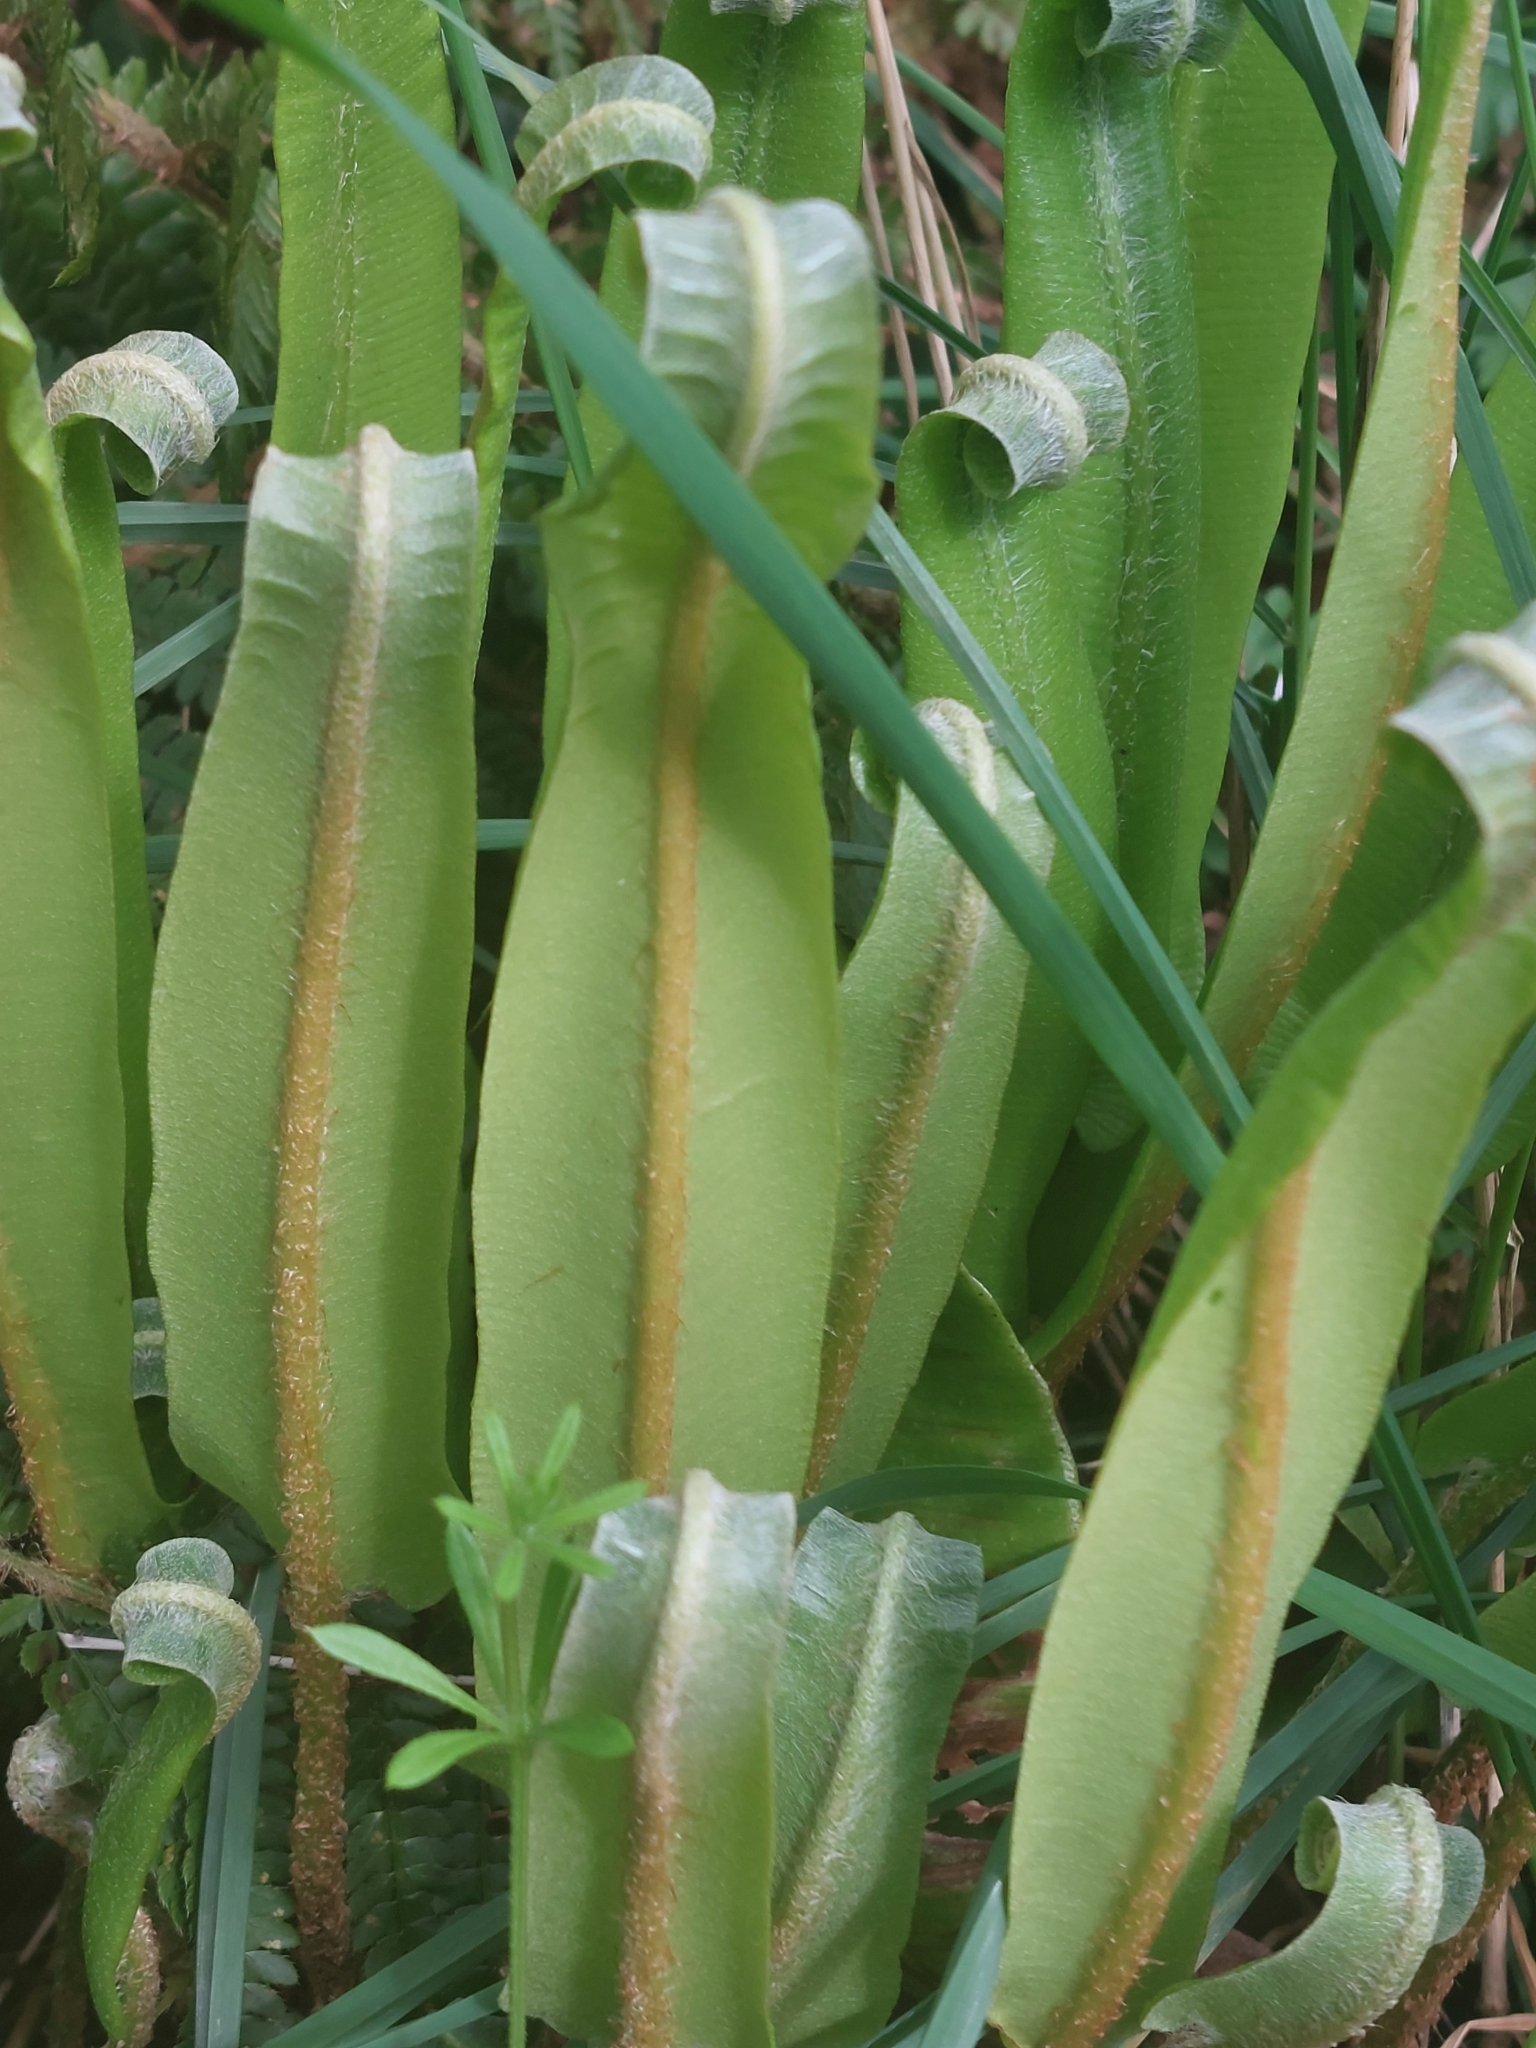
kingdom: Plantae
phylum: Tracheophyta
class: Polypodiopsida
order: Polypodiales
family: Aspleniaceae
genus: Asplenium
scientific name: Asplenium scolopendrium
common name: Hart's-tongue fern
